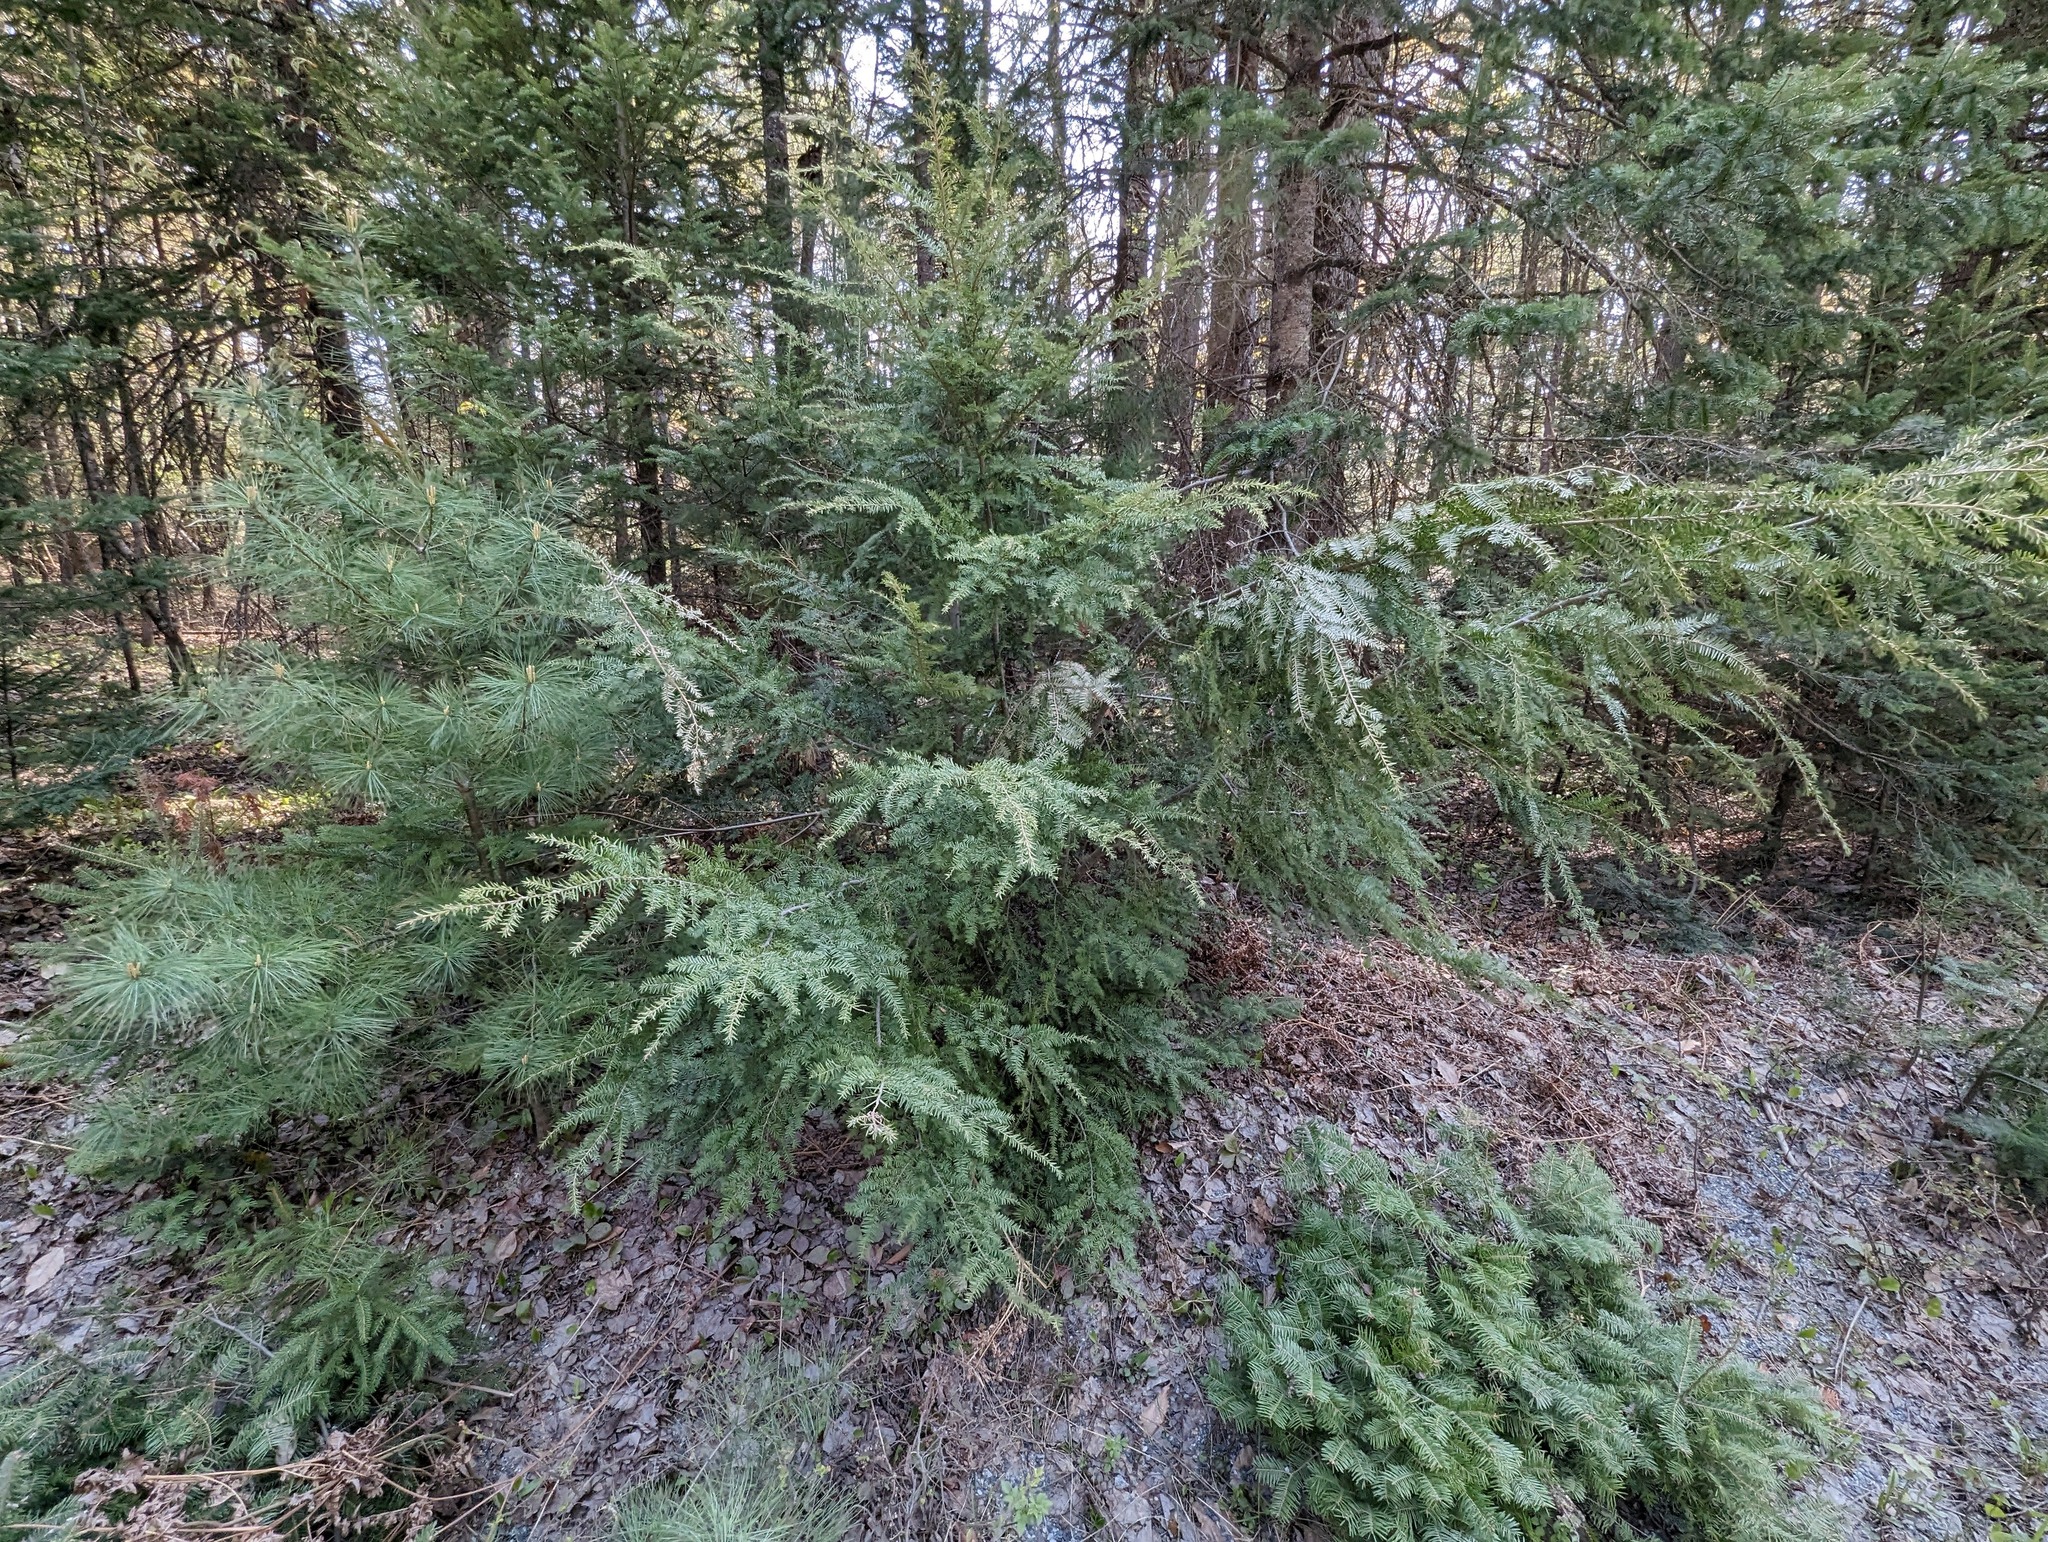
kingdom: Plantae
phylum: Tracheophyta
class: Pinopsida
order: Pinales
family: Pinaceae
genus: Tsuga
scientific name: Tsuga canadensis
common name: Eastern hemlock
